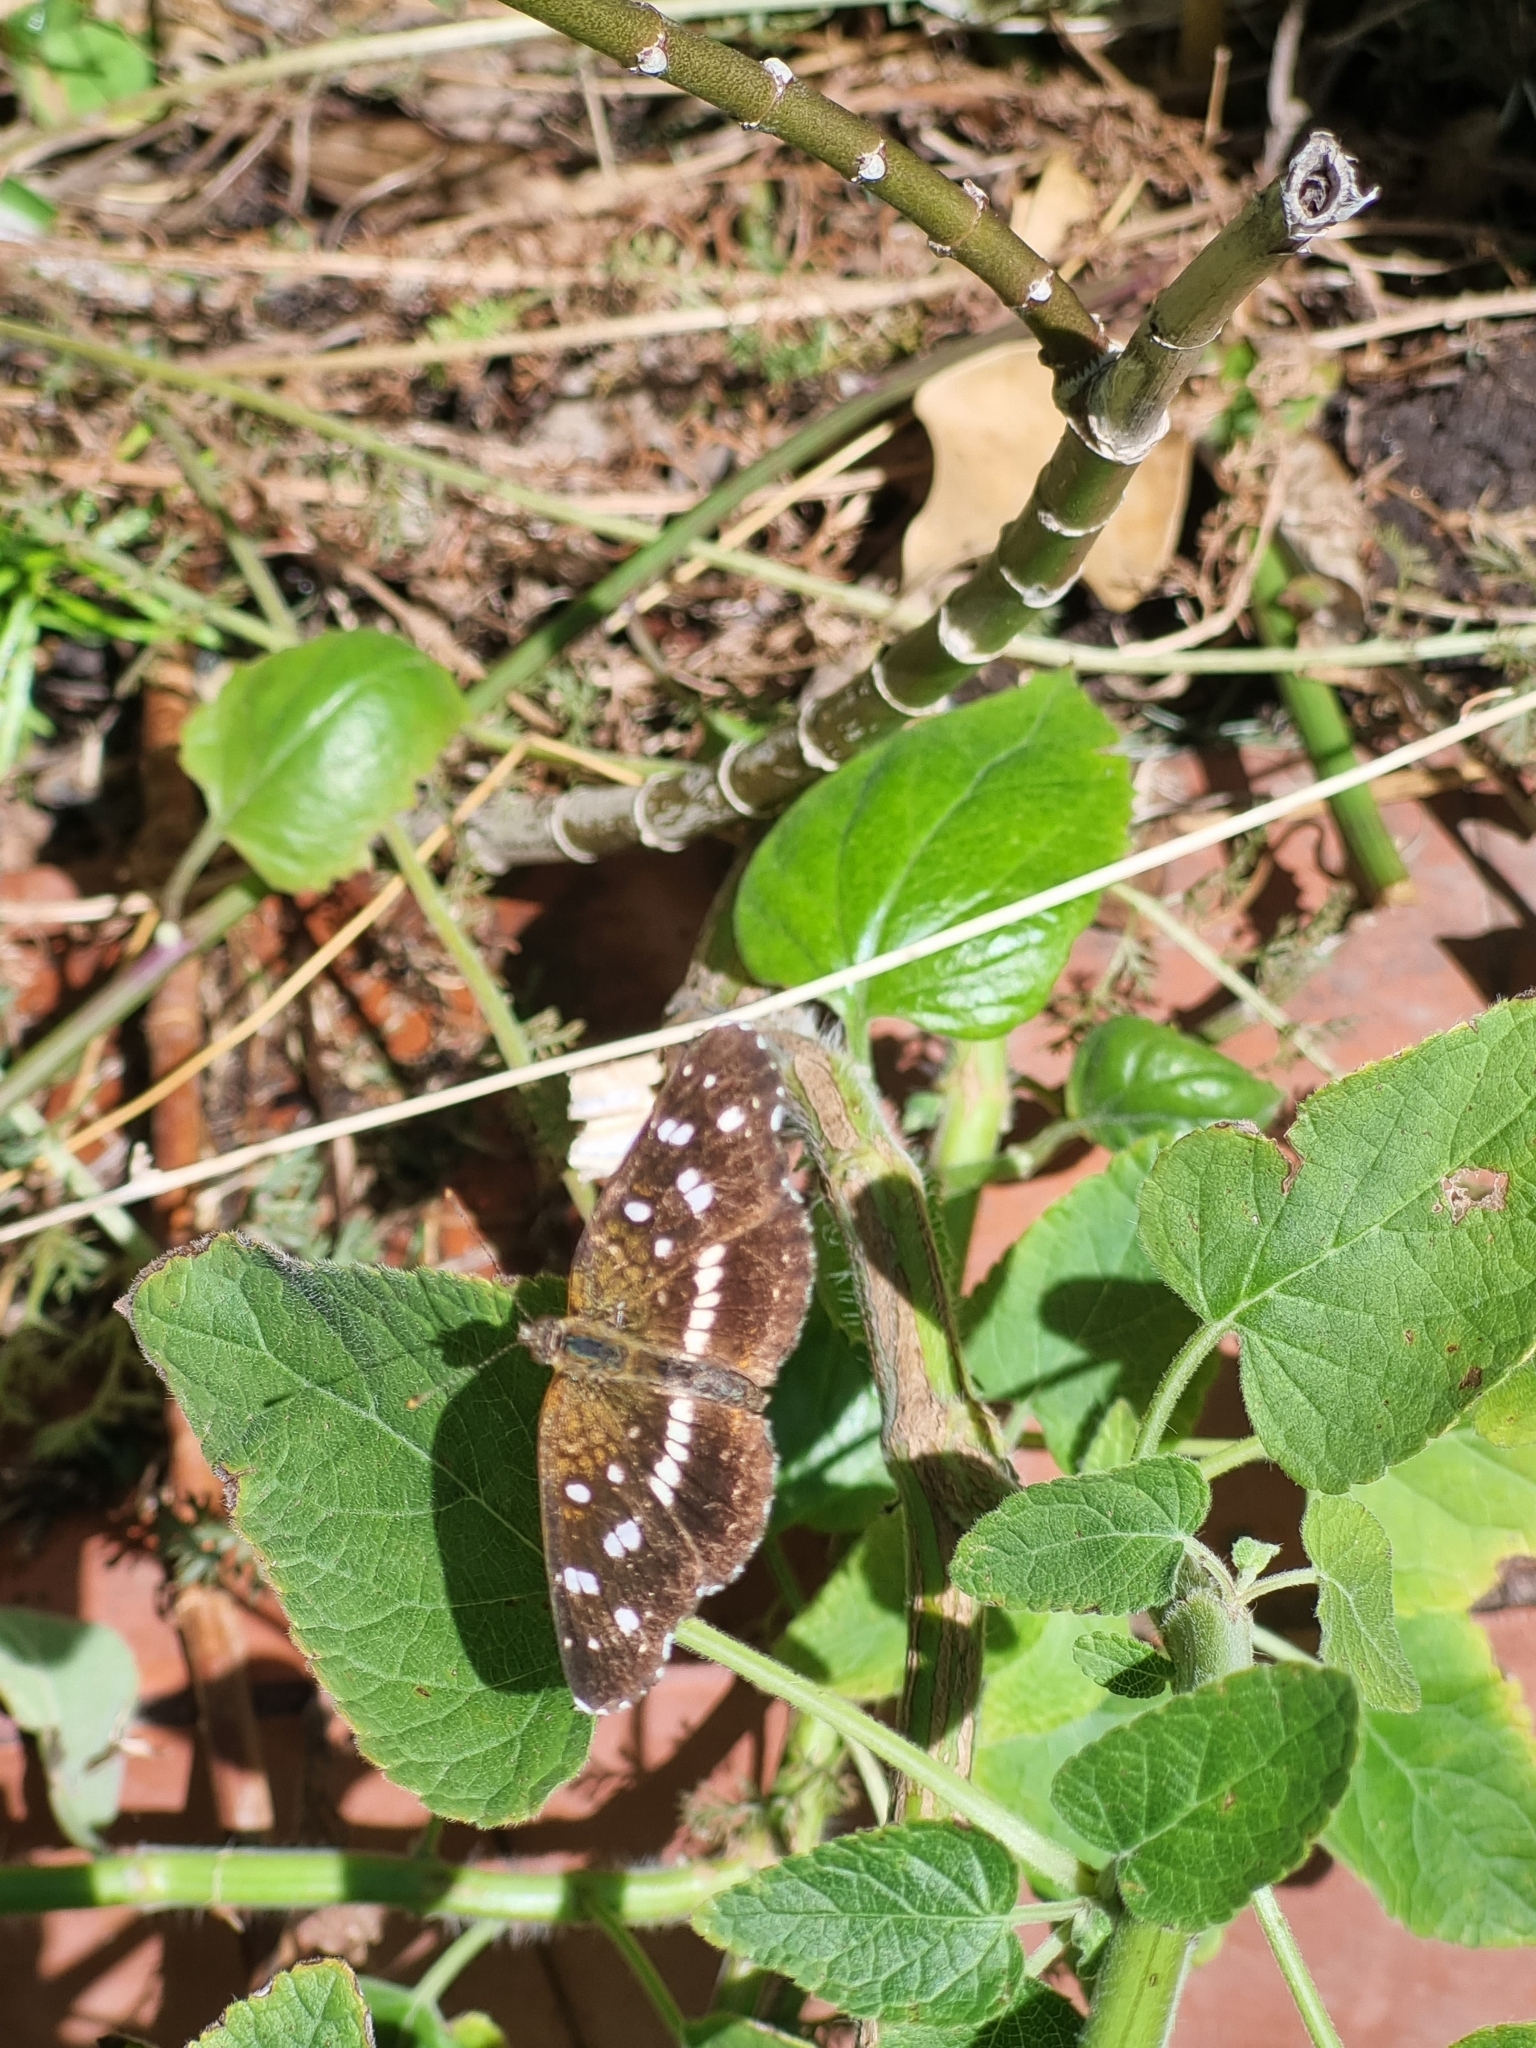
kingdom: Animalia
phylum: Arthropoda
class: Insecta
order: Lepidoptera
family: Nymphalidae
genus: Ortilia
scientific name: Ortilia ithra
